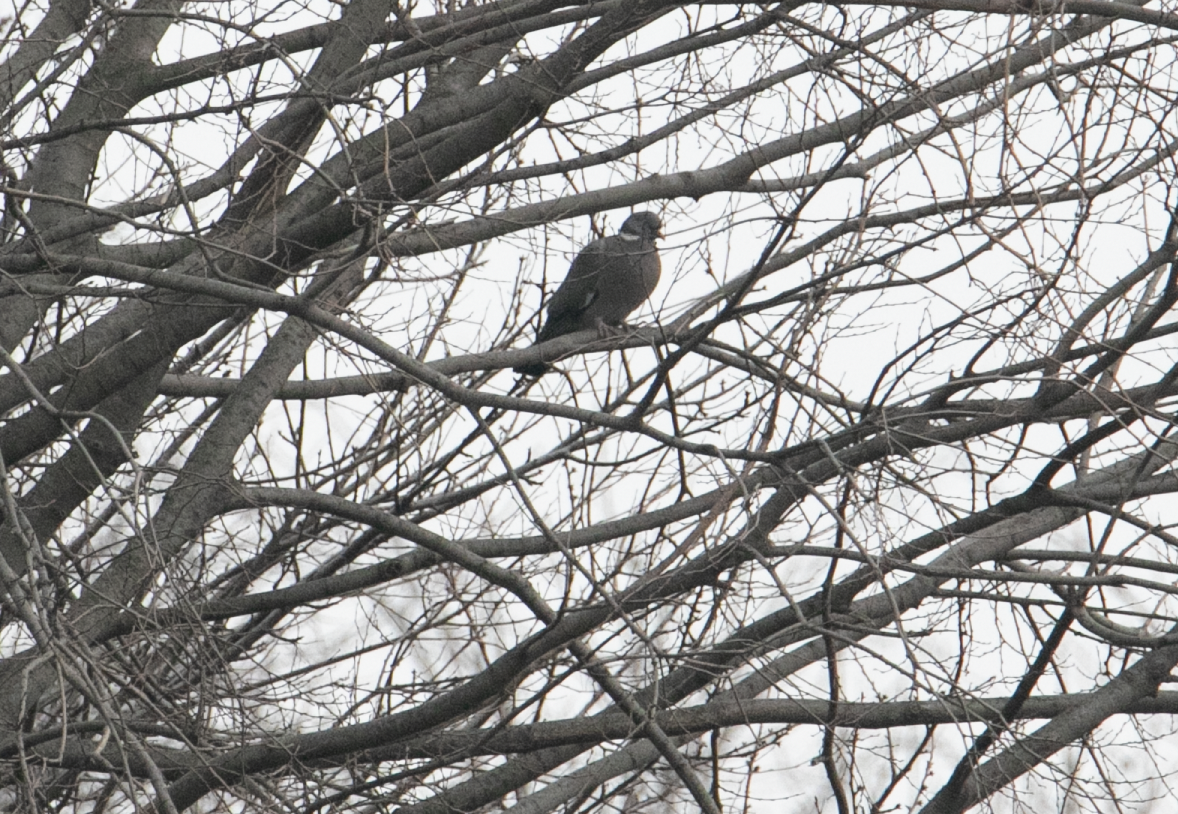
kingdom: Animalia
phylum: Chordata
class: Aves
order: Columbiformes
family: Columbidae
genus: Columba
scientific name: Columba palumbus
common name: Common wood pigeon
